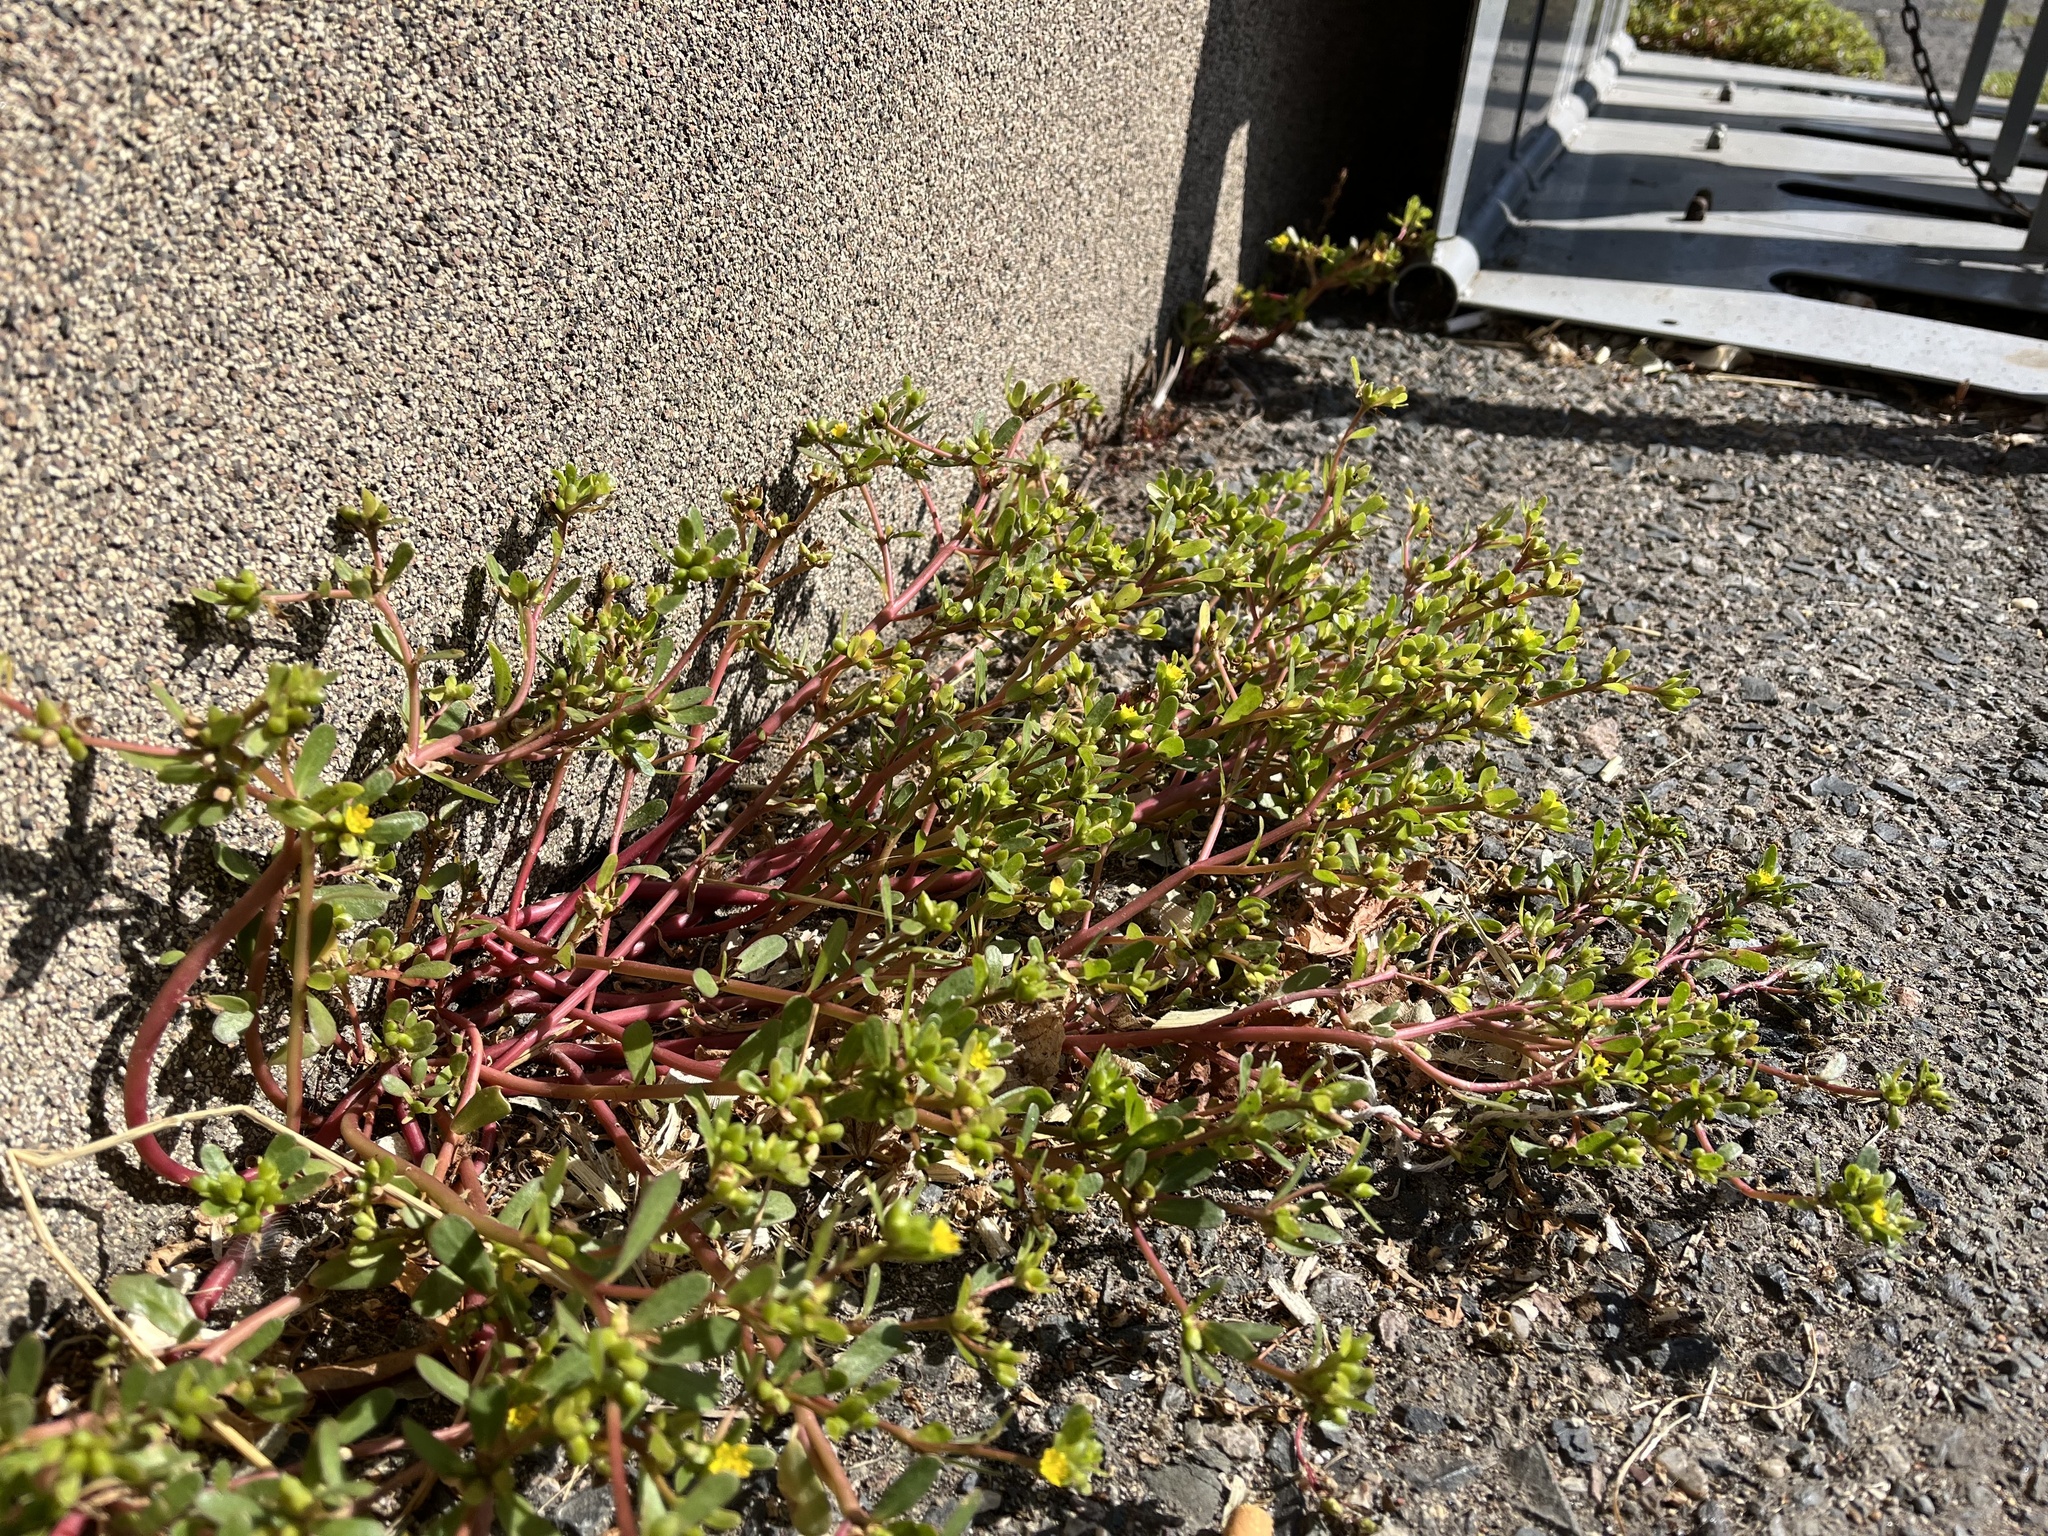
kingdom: Plantae
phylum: Tracheophyta
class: Magnoliopsida
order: Caryophyllales
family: Portulacaceae
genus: Portulaca
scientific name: Portulaca oleracea
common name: Common purslane
